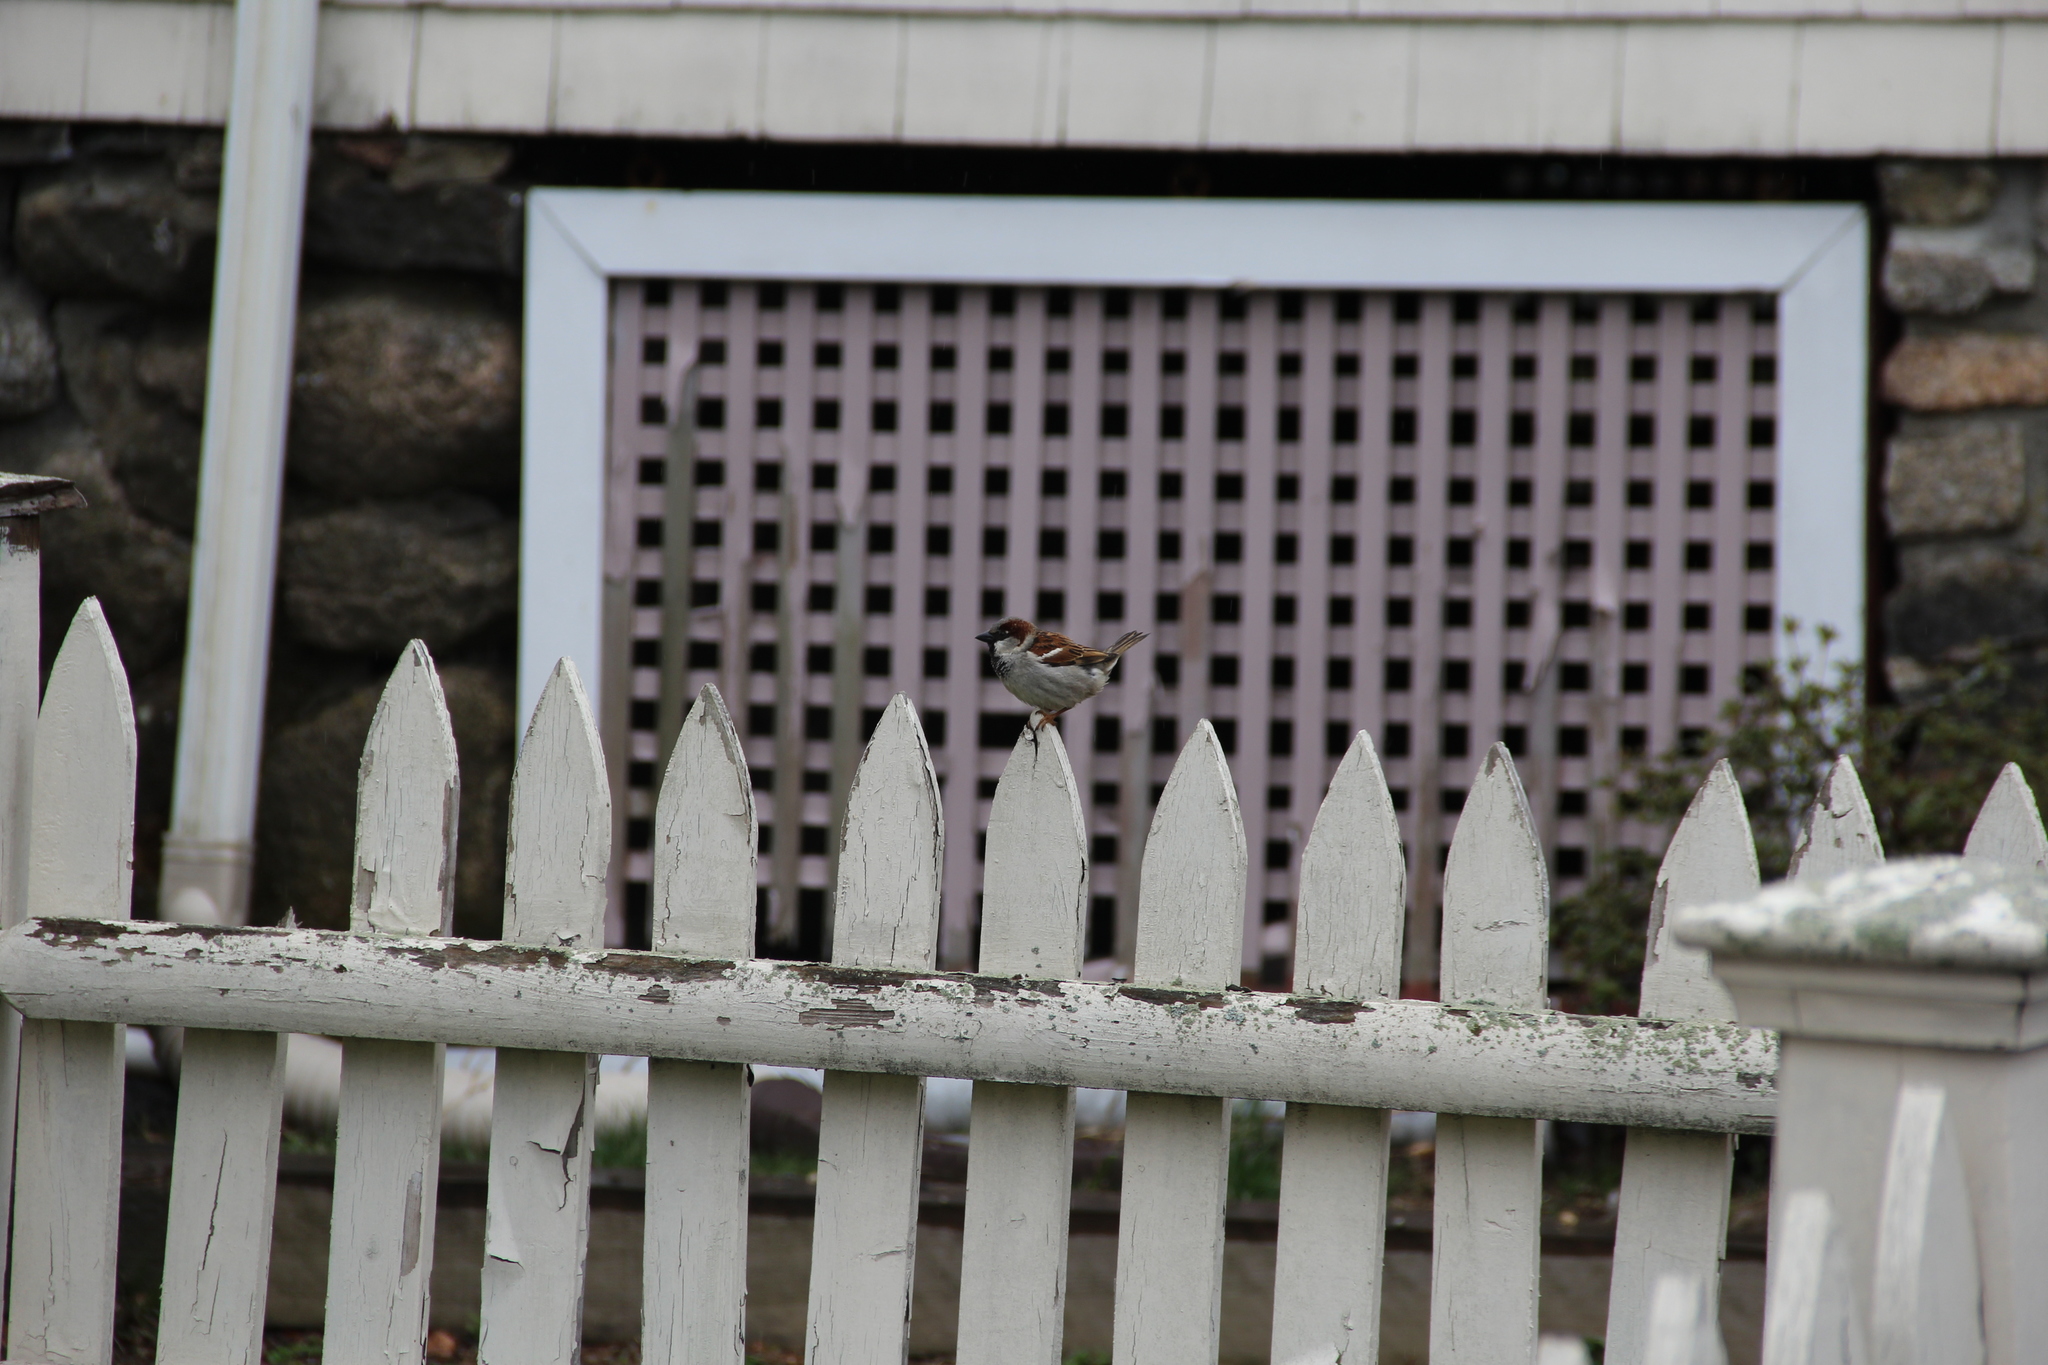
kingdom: Animalia
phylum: Chordata
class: Aves
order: Passeriformes
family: Passeridae
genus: Passer
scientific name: Passer domesticus
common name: House sparrow
